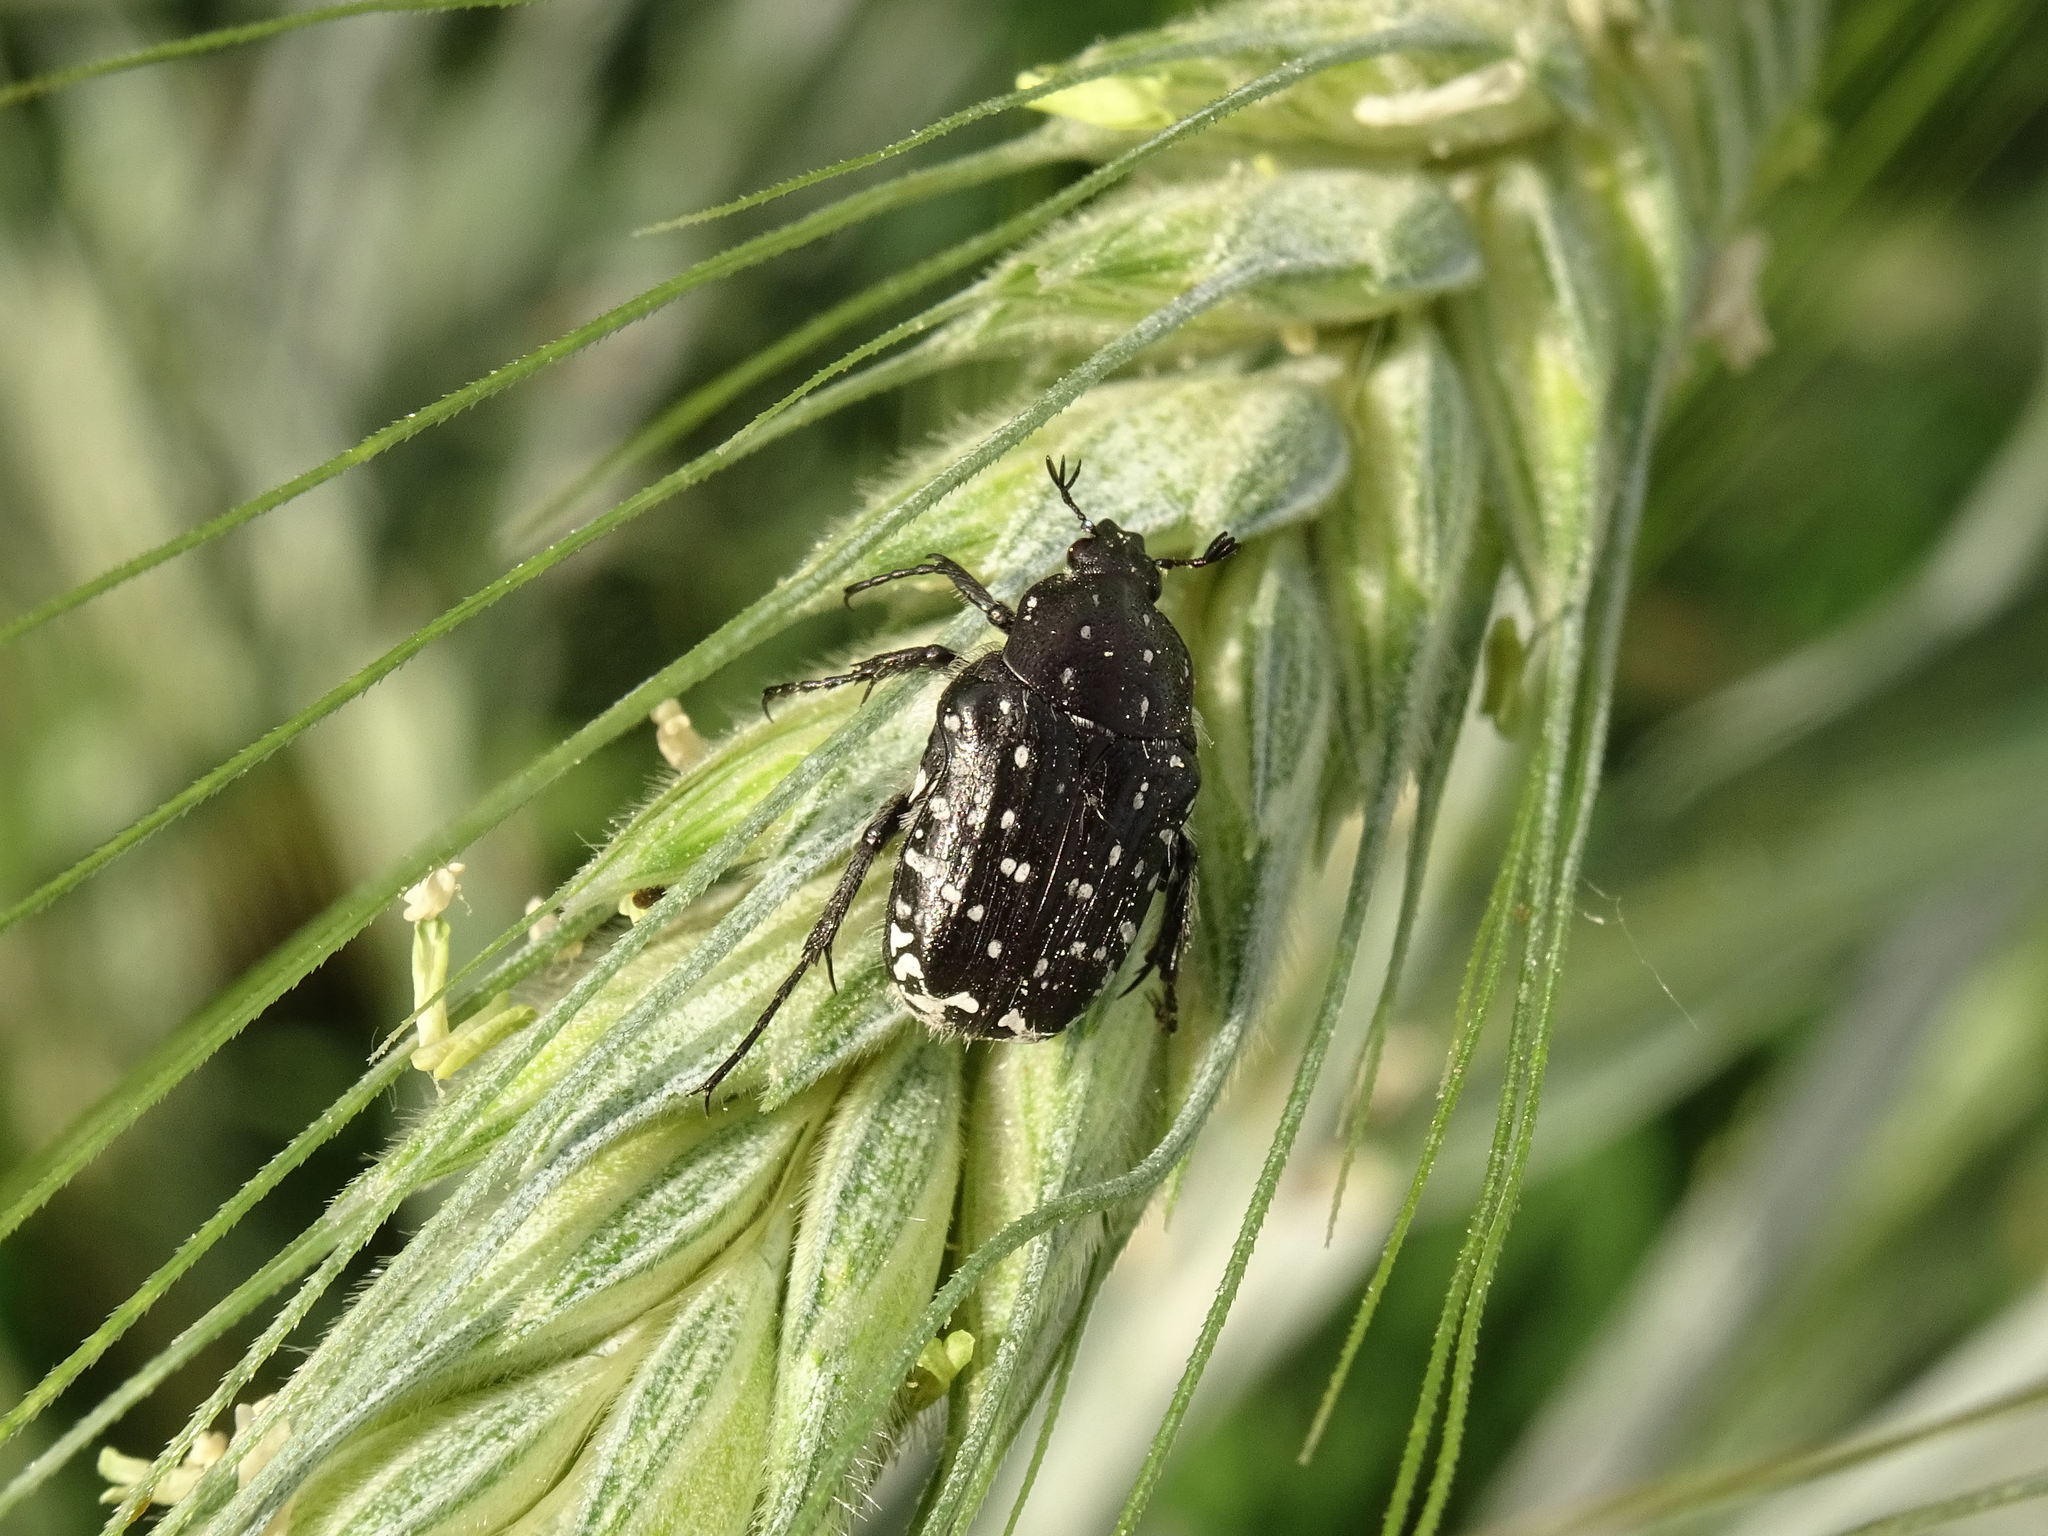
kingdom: Animalia
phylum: Arthropoda
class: Insecta
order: Coleoptera
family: Scarabaeidae
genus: Oxythyrea
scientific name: Oxythyrea funesta
